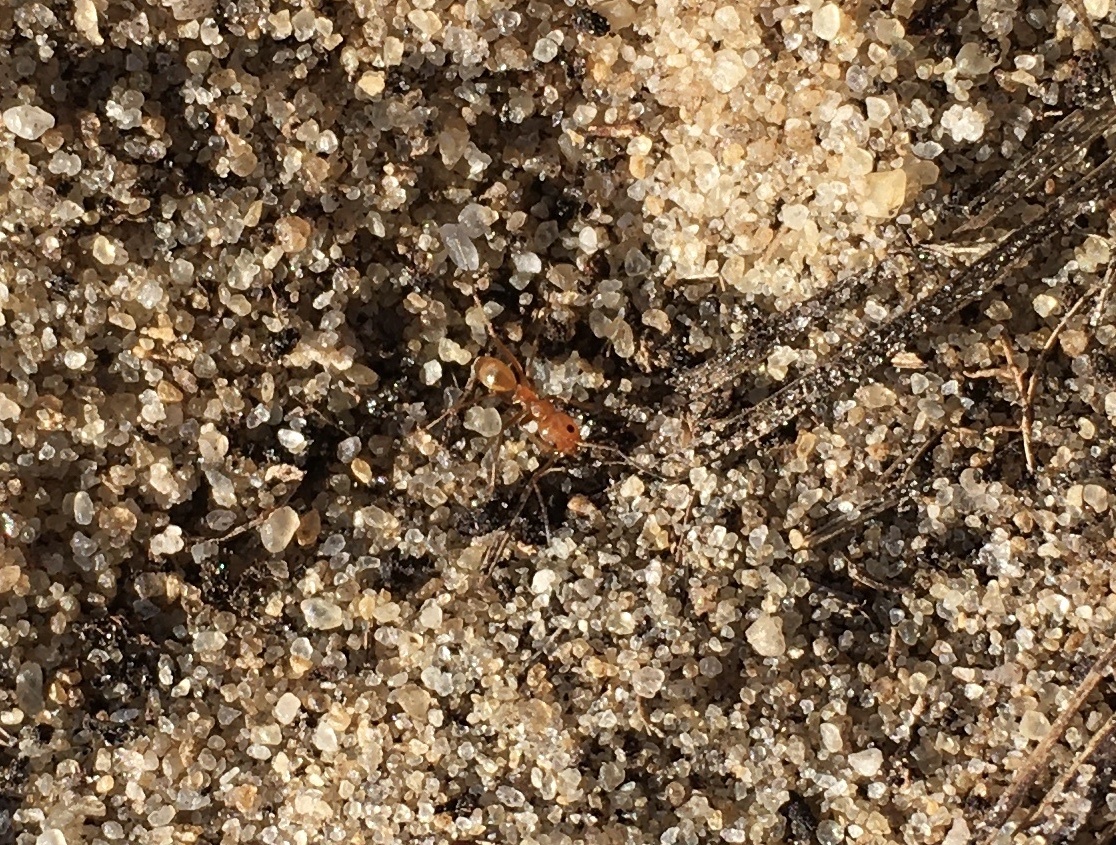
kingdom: Animalia
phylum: Arthropoda
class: Insecta
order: Hymenoptera
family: Formicidae
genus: Dorymyrmex
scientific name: Dorymyrmex bureni
